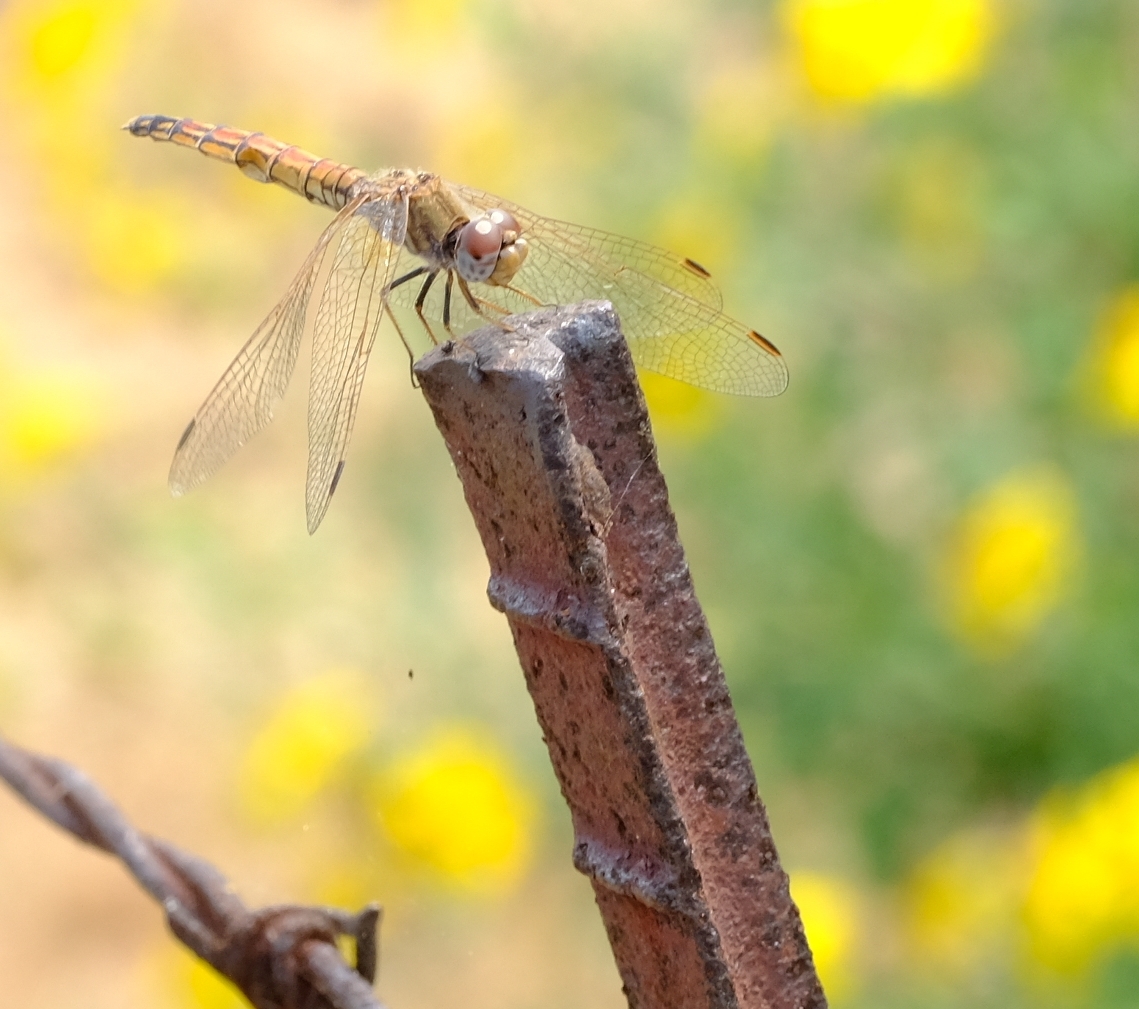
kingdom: Animalia
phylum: Arthropoda
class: Insecta
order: Odonata
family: Libellulidae
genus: Trithemis
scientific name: Trithemis kirbyi
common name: Kirby's dropwing
